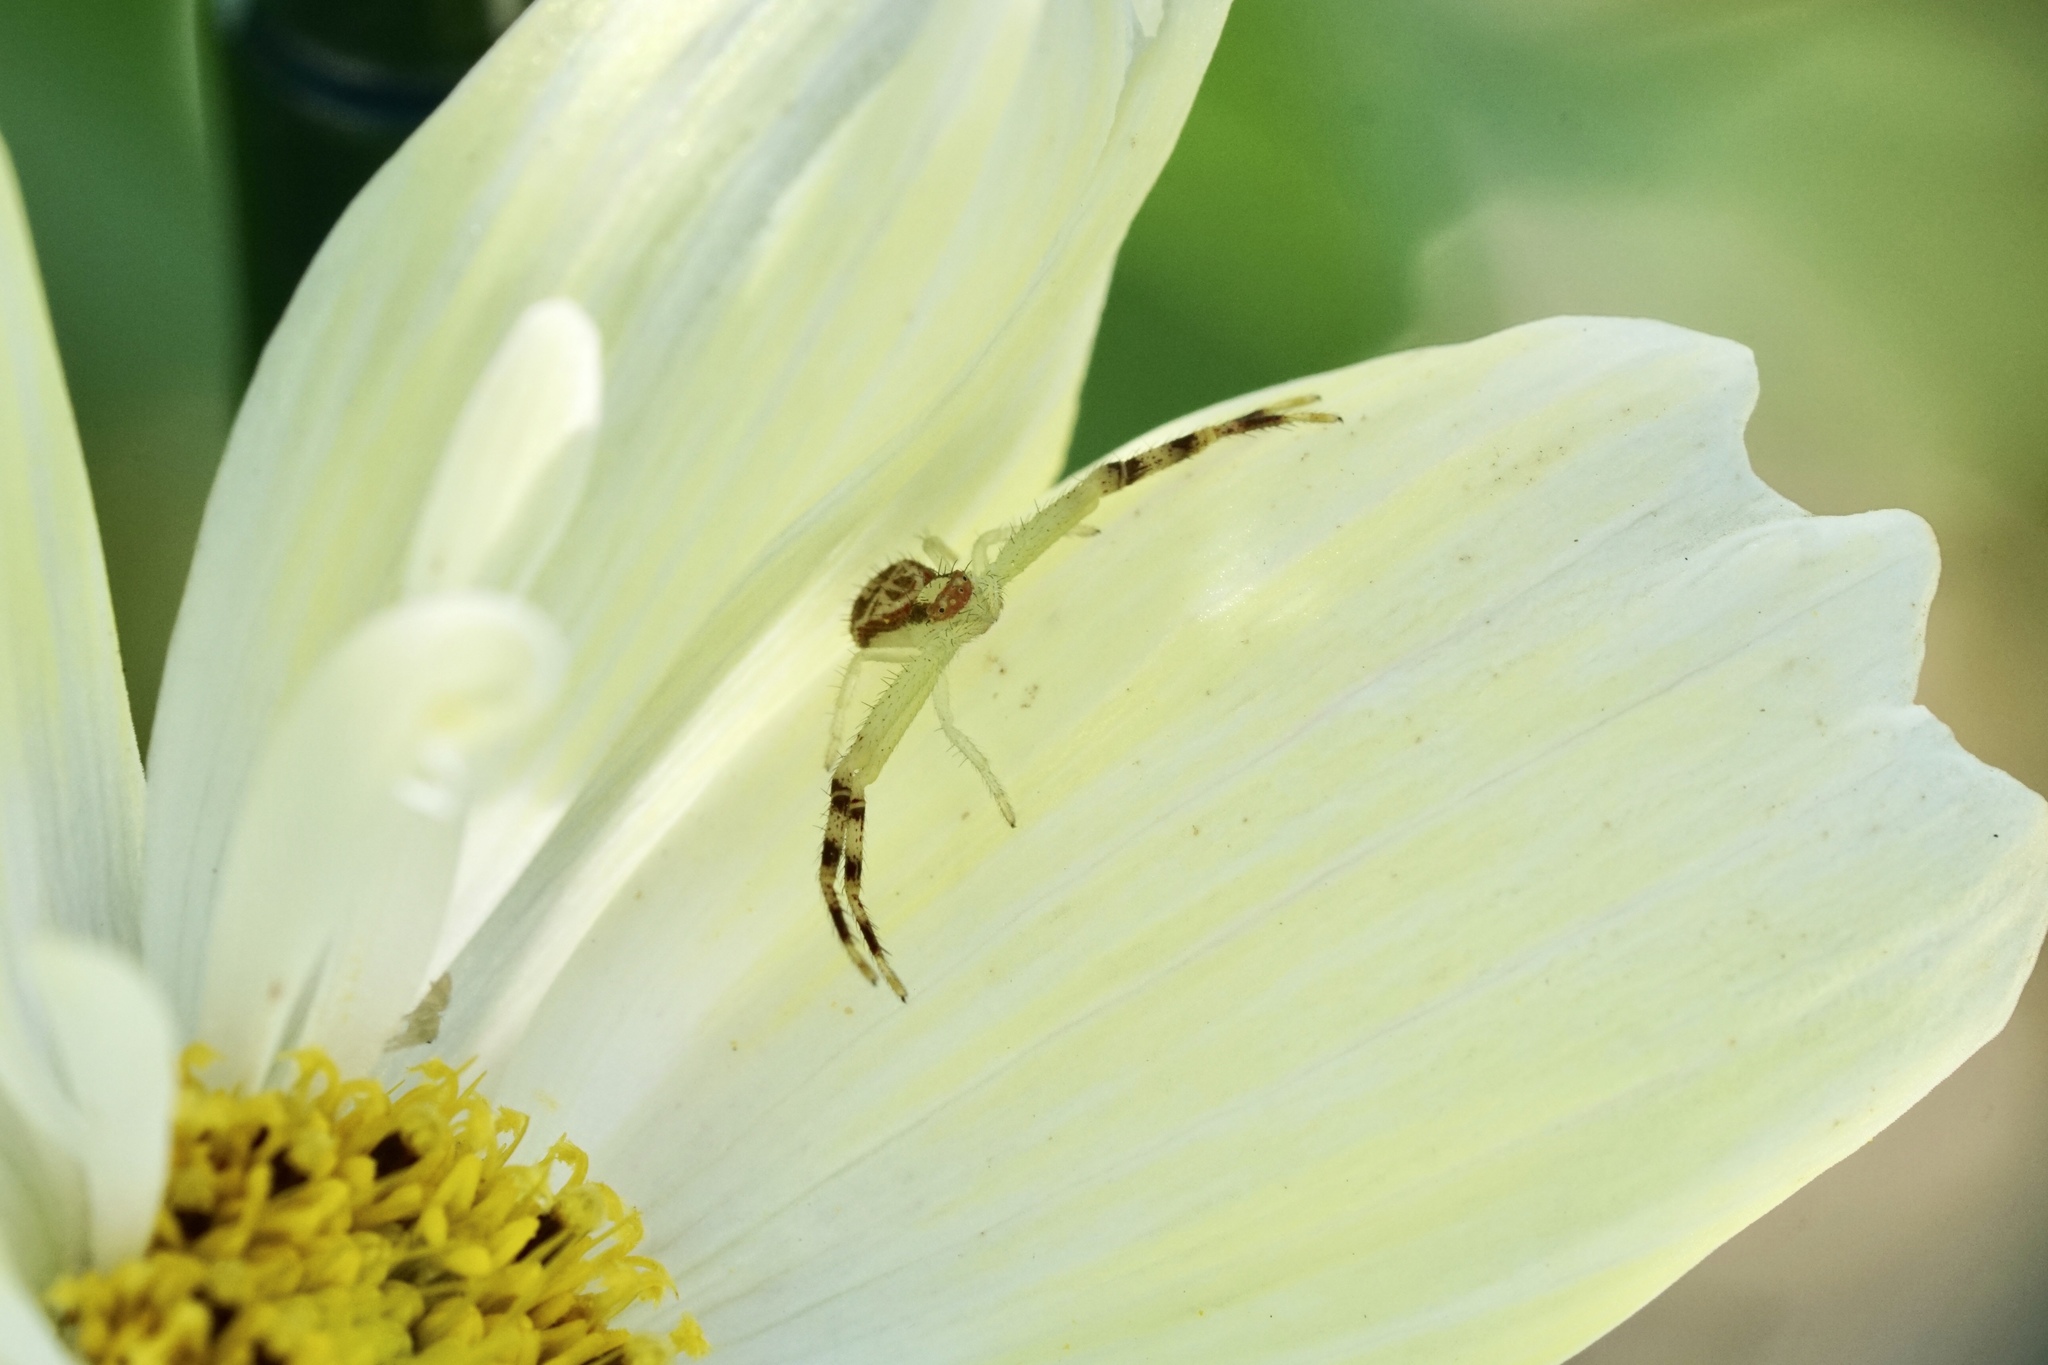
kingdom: Animalia
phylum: Arthropoda
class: Arachnida
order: Araneae
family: Thomisidae
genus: Mecaphesa
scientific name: Mecaphesa asperata
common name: Crab spiders
